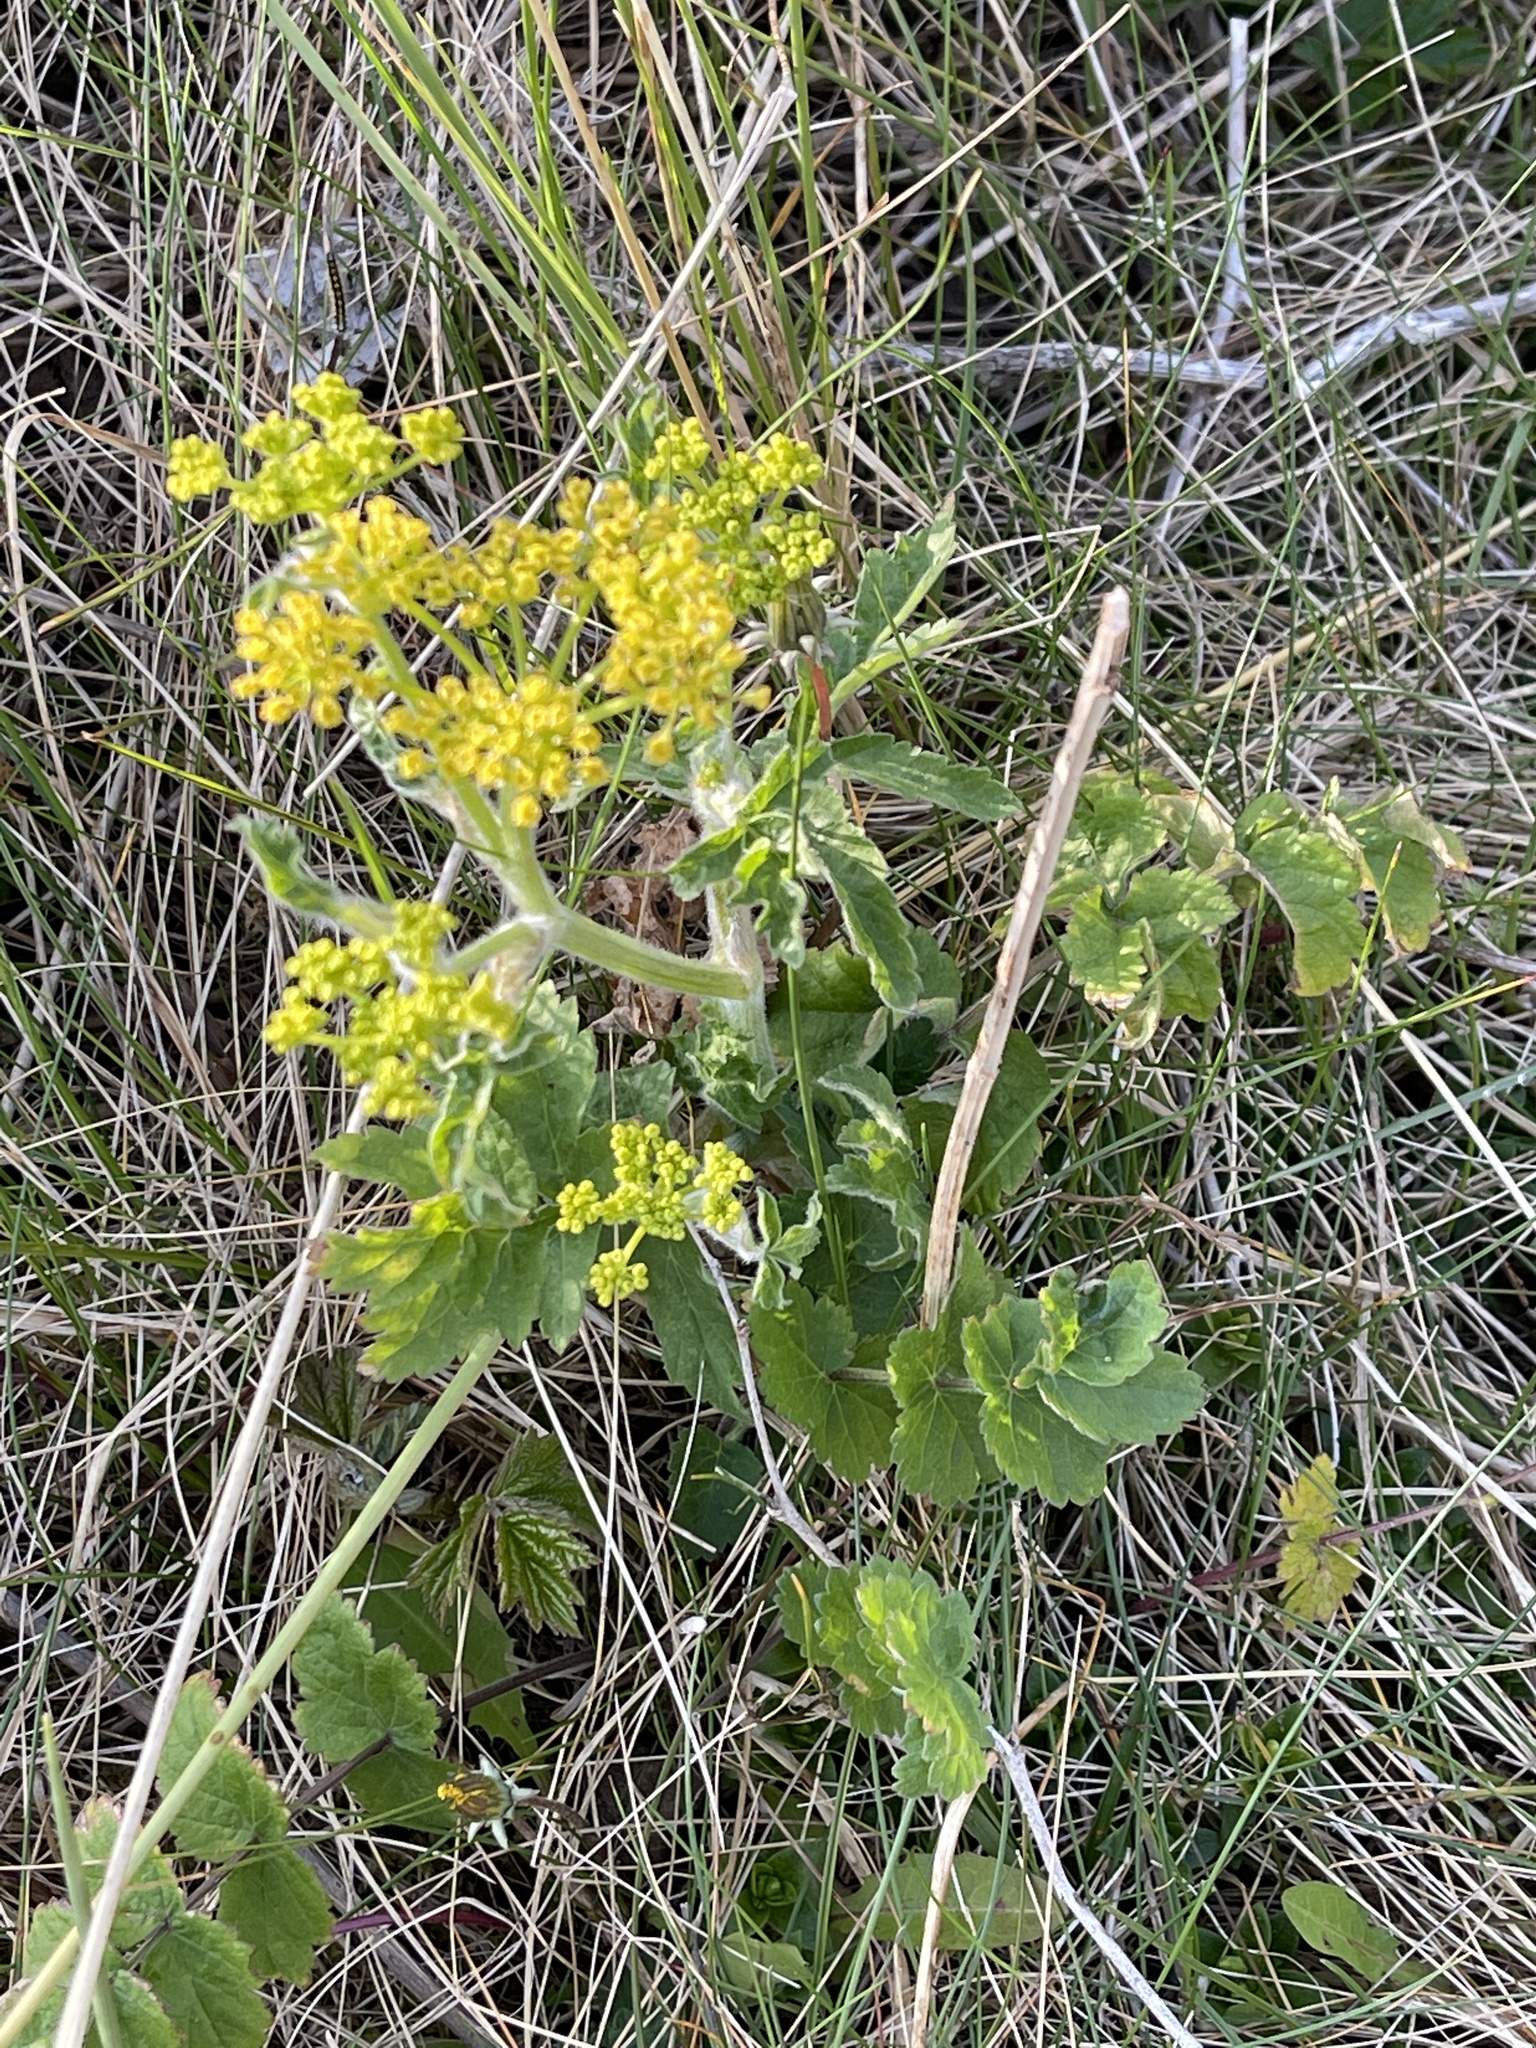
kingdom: Plantae
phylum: Tracheophyta
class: Magnoliopsida
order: Apiales
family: Apiaceae
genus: Pastinaca
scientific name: Pastinaca sativa
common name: Wild parsnip
